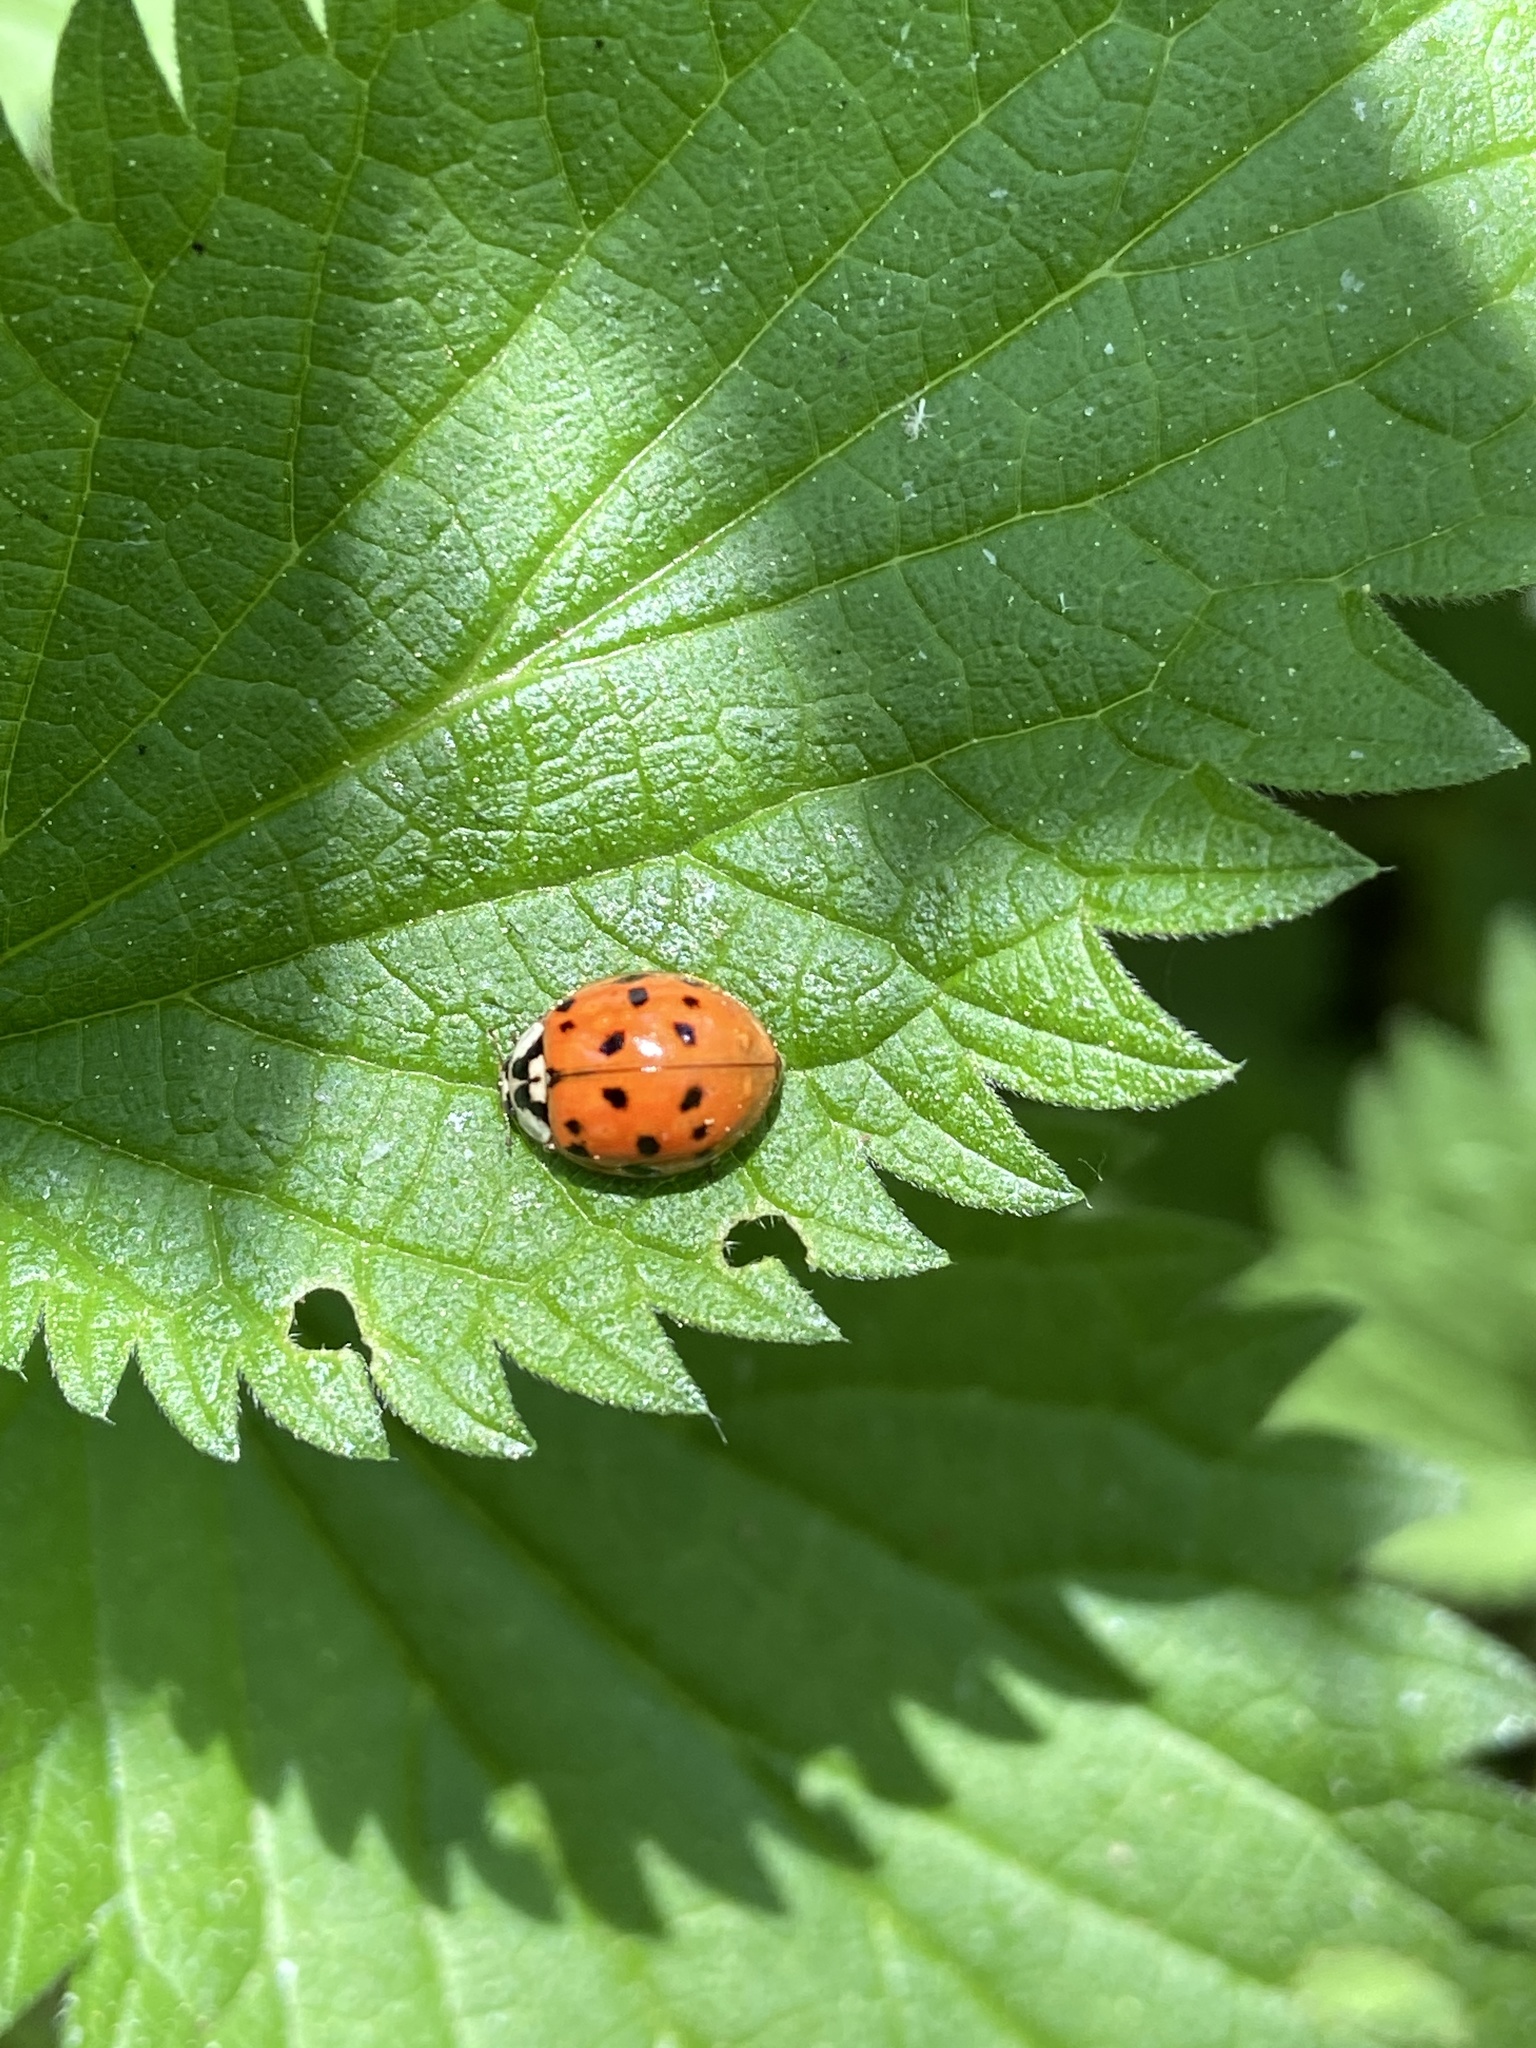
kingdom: Animalia
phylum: Arthropoda
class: Insecta
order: Coleoptera
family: Coccinellidae
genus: Harmonia
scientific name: Harmonia axyridis
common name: Harlequin ladybird
